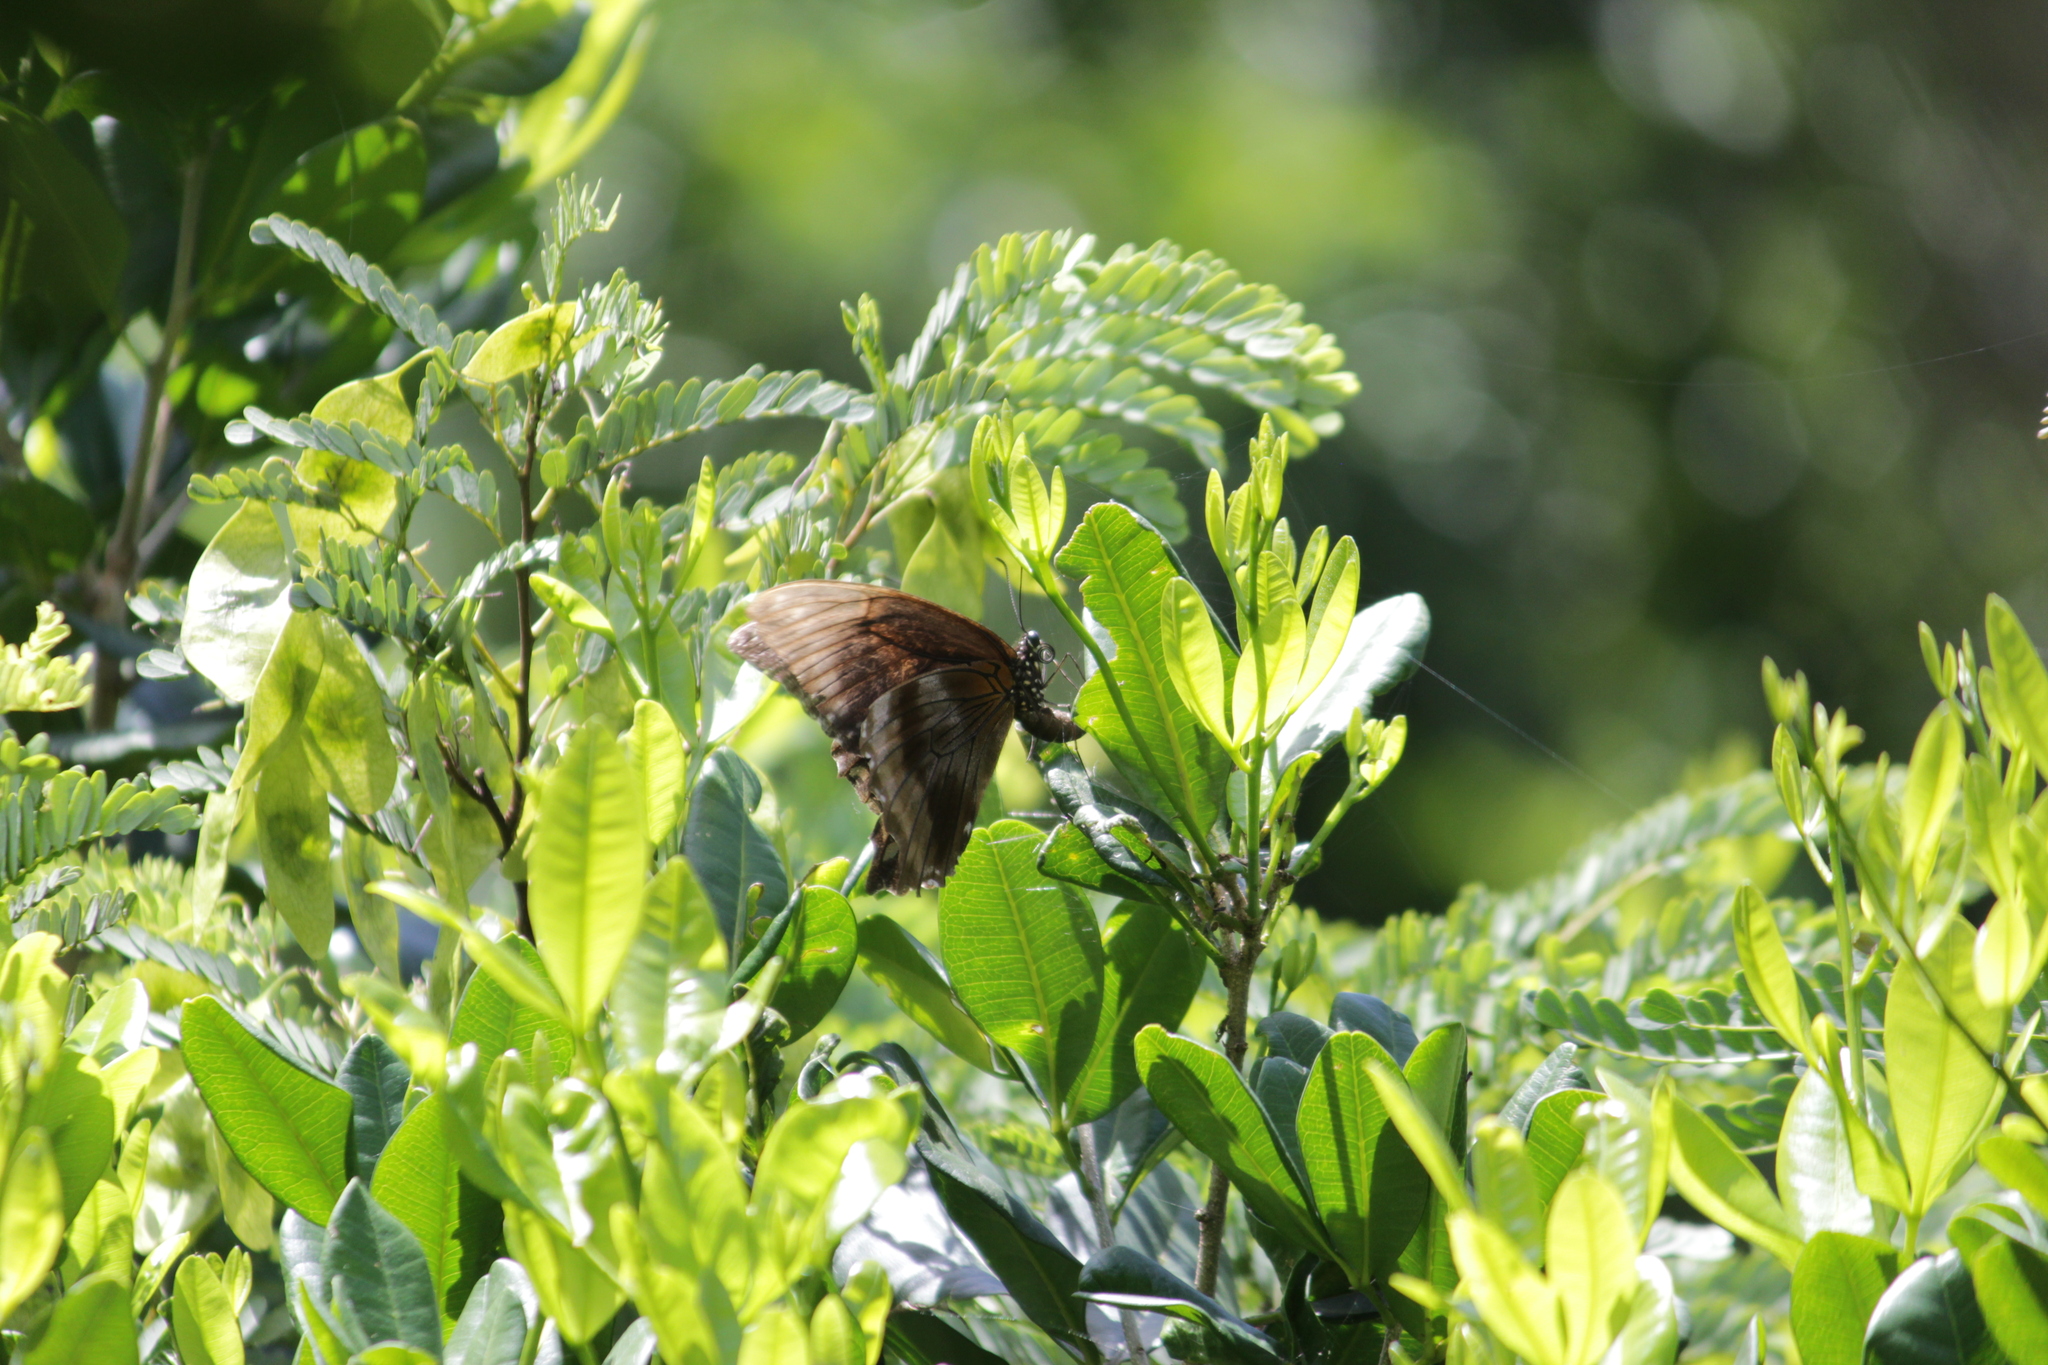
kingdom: Animalia
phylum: Arthropoda
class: Insecta
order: Lepidoptera
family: Papilionidae
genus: Papilio
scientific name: Papilio nireus
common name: Greenbanded swallowtail
